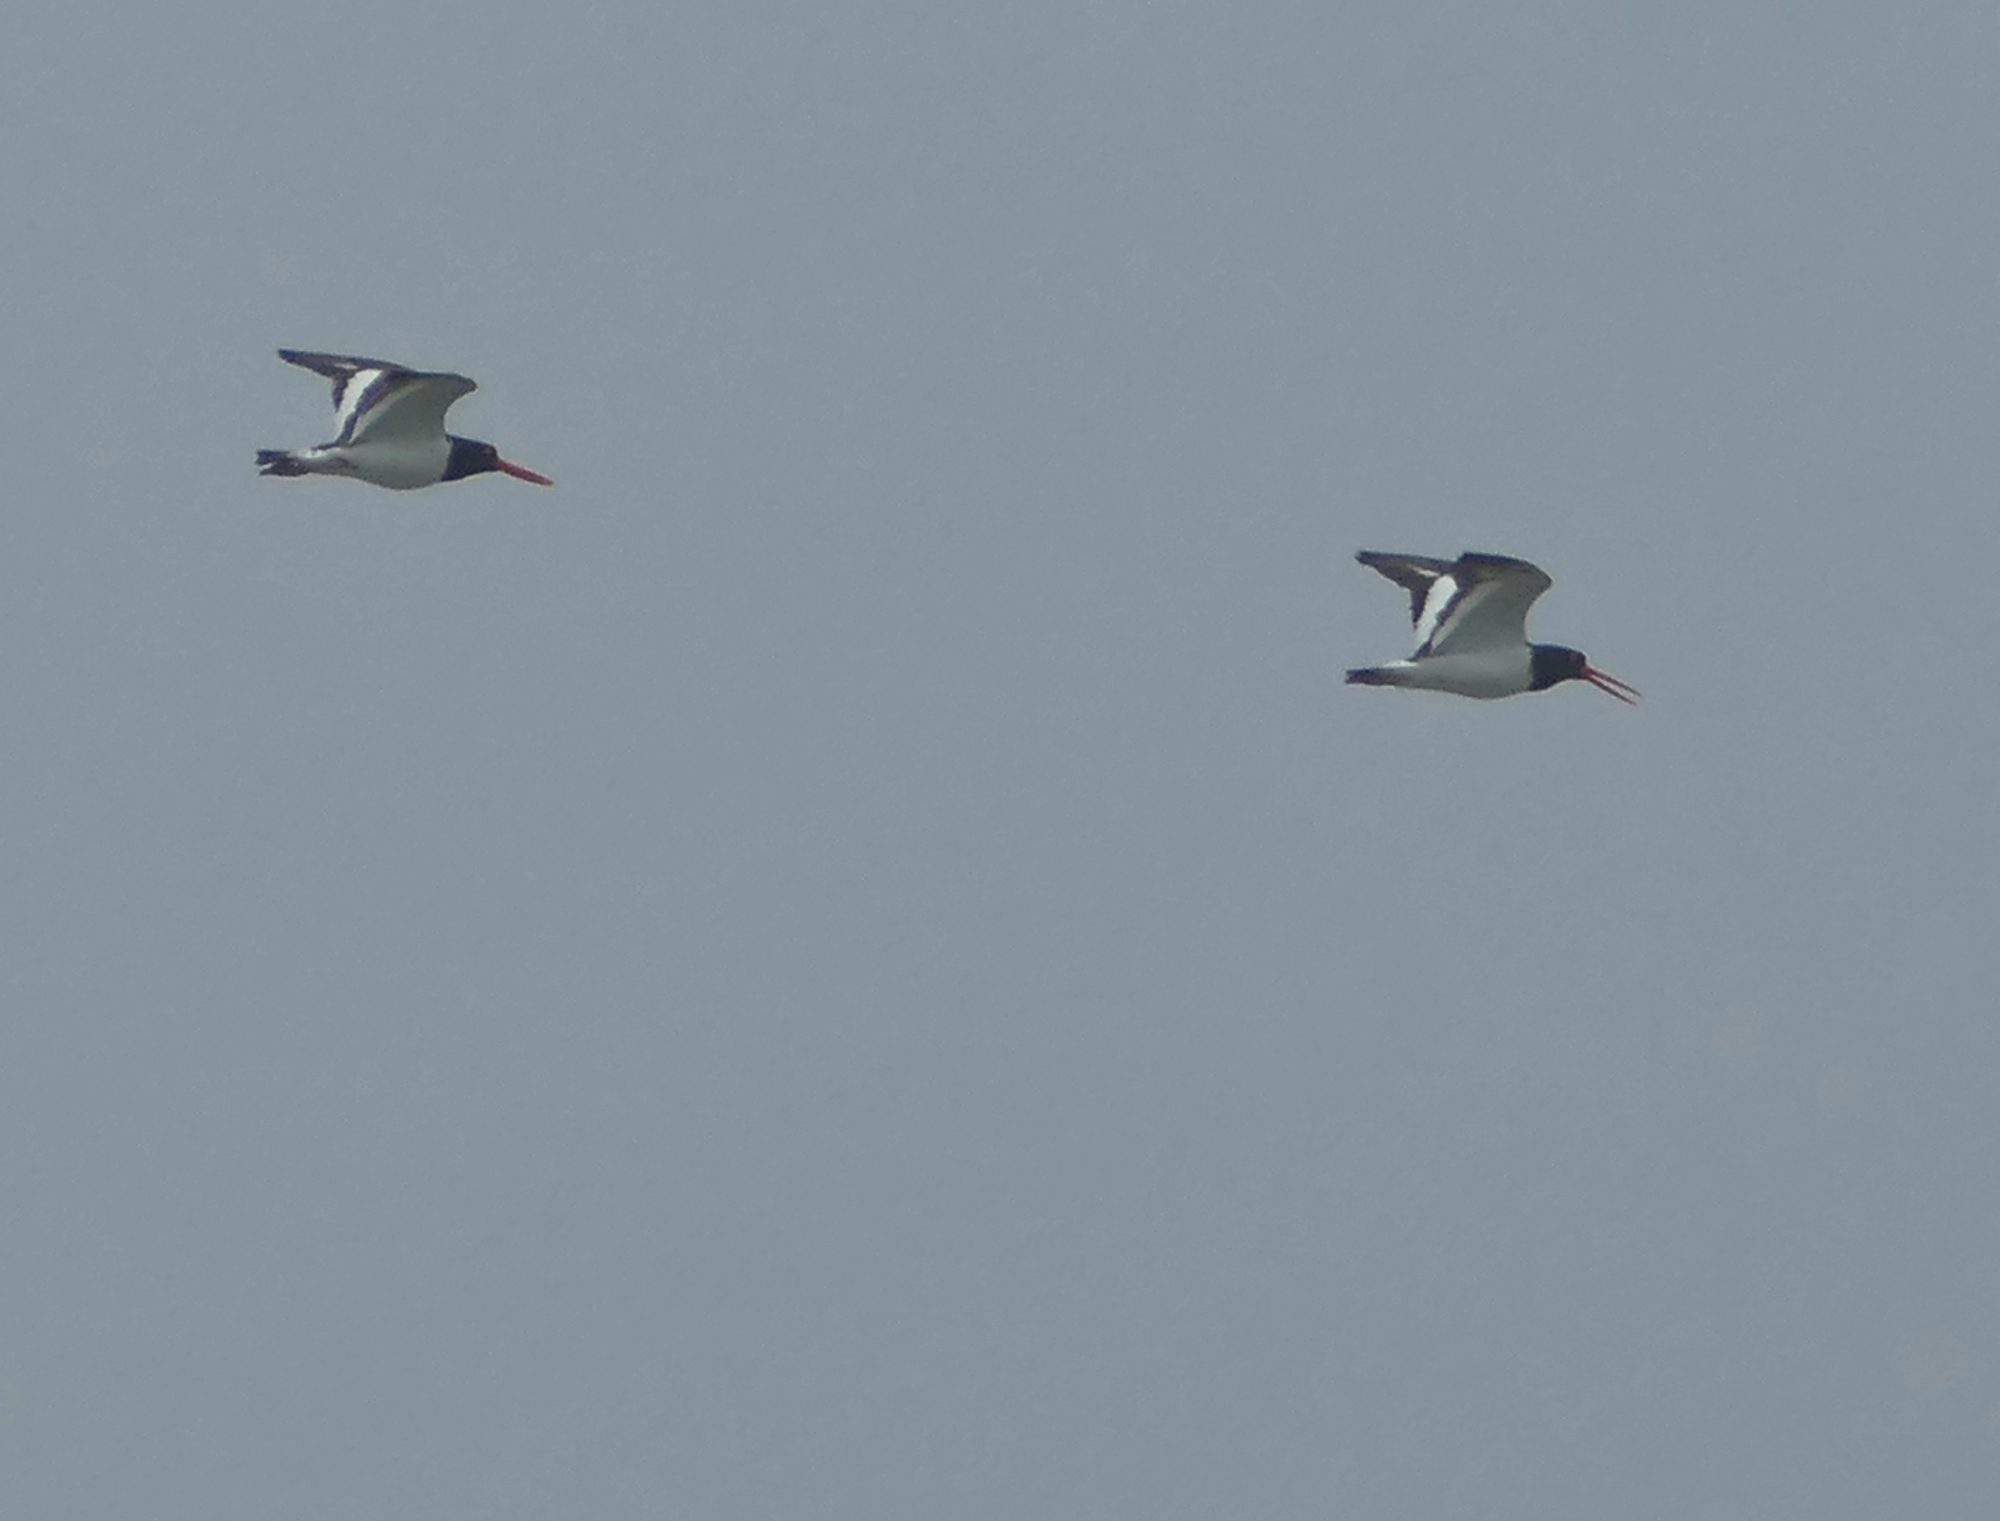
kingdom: Animalia
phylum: Chordata
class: Aves
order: Charadriiformes
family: Haematopodidae
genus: Haematopus
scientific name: Haematopus palliatus
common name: American oystercatcher
